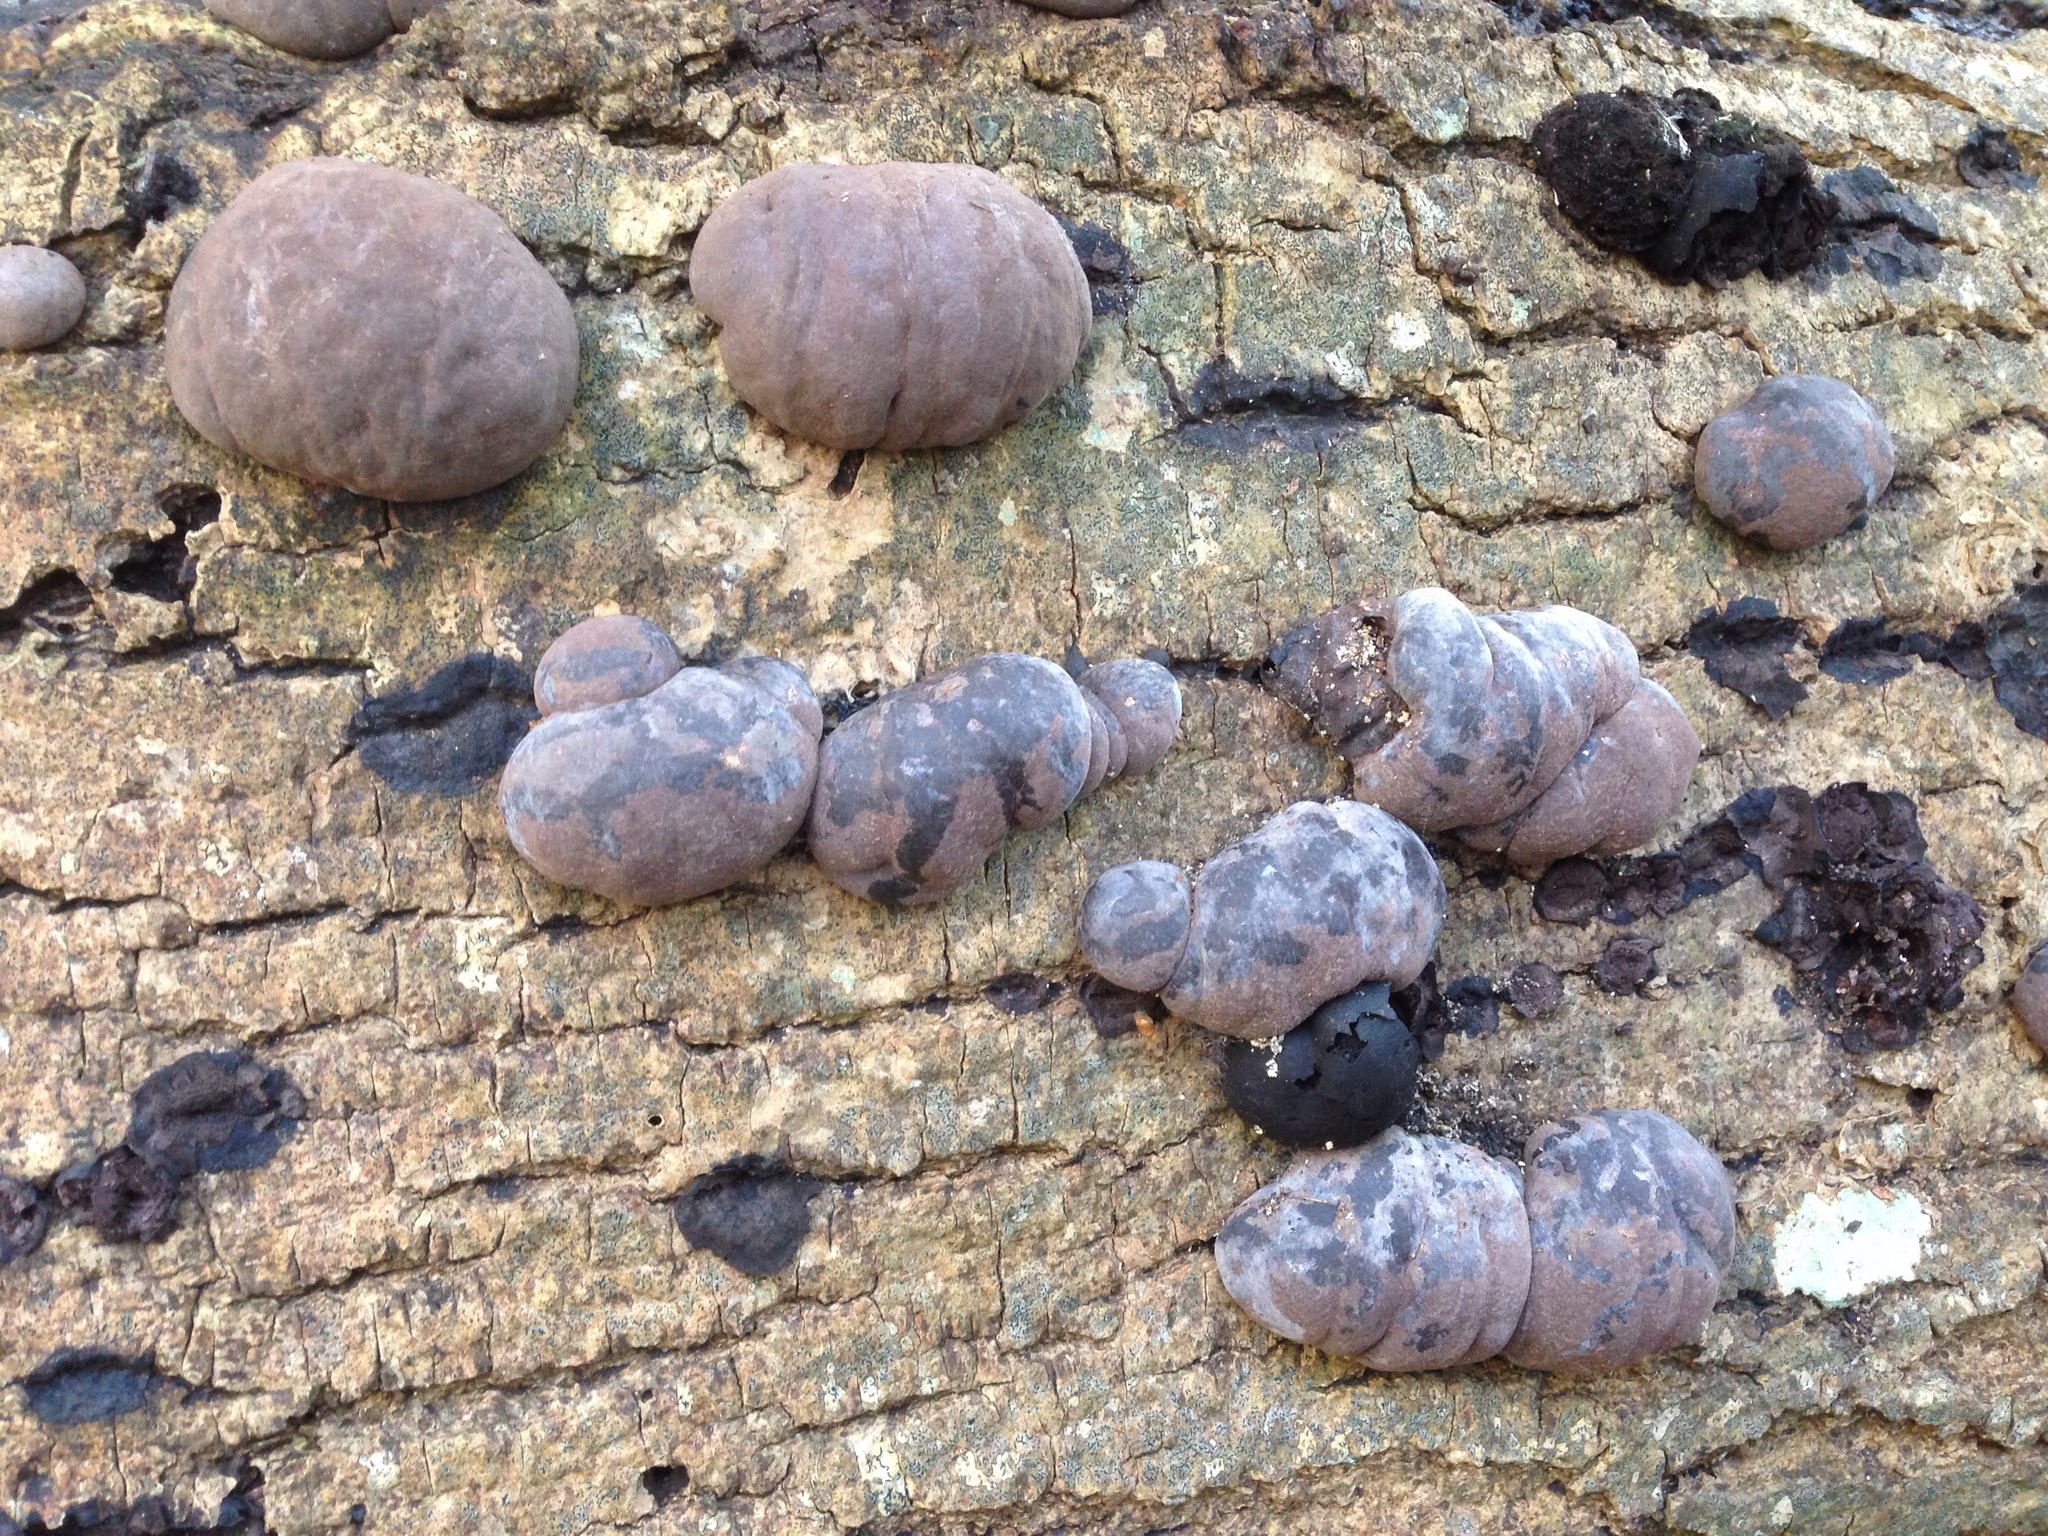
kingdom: Fungi
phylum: Ascomycota
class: Sordariomycetes
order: Xylariales
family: Hypoxylaceae
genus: Daldinia
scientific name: Daldinia concentrica
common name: Cramp balls
